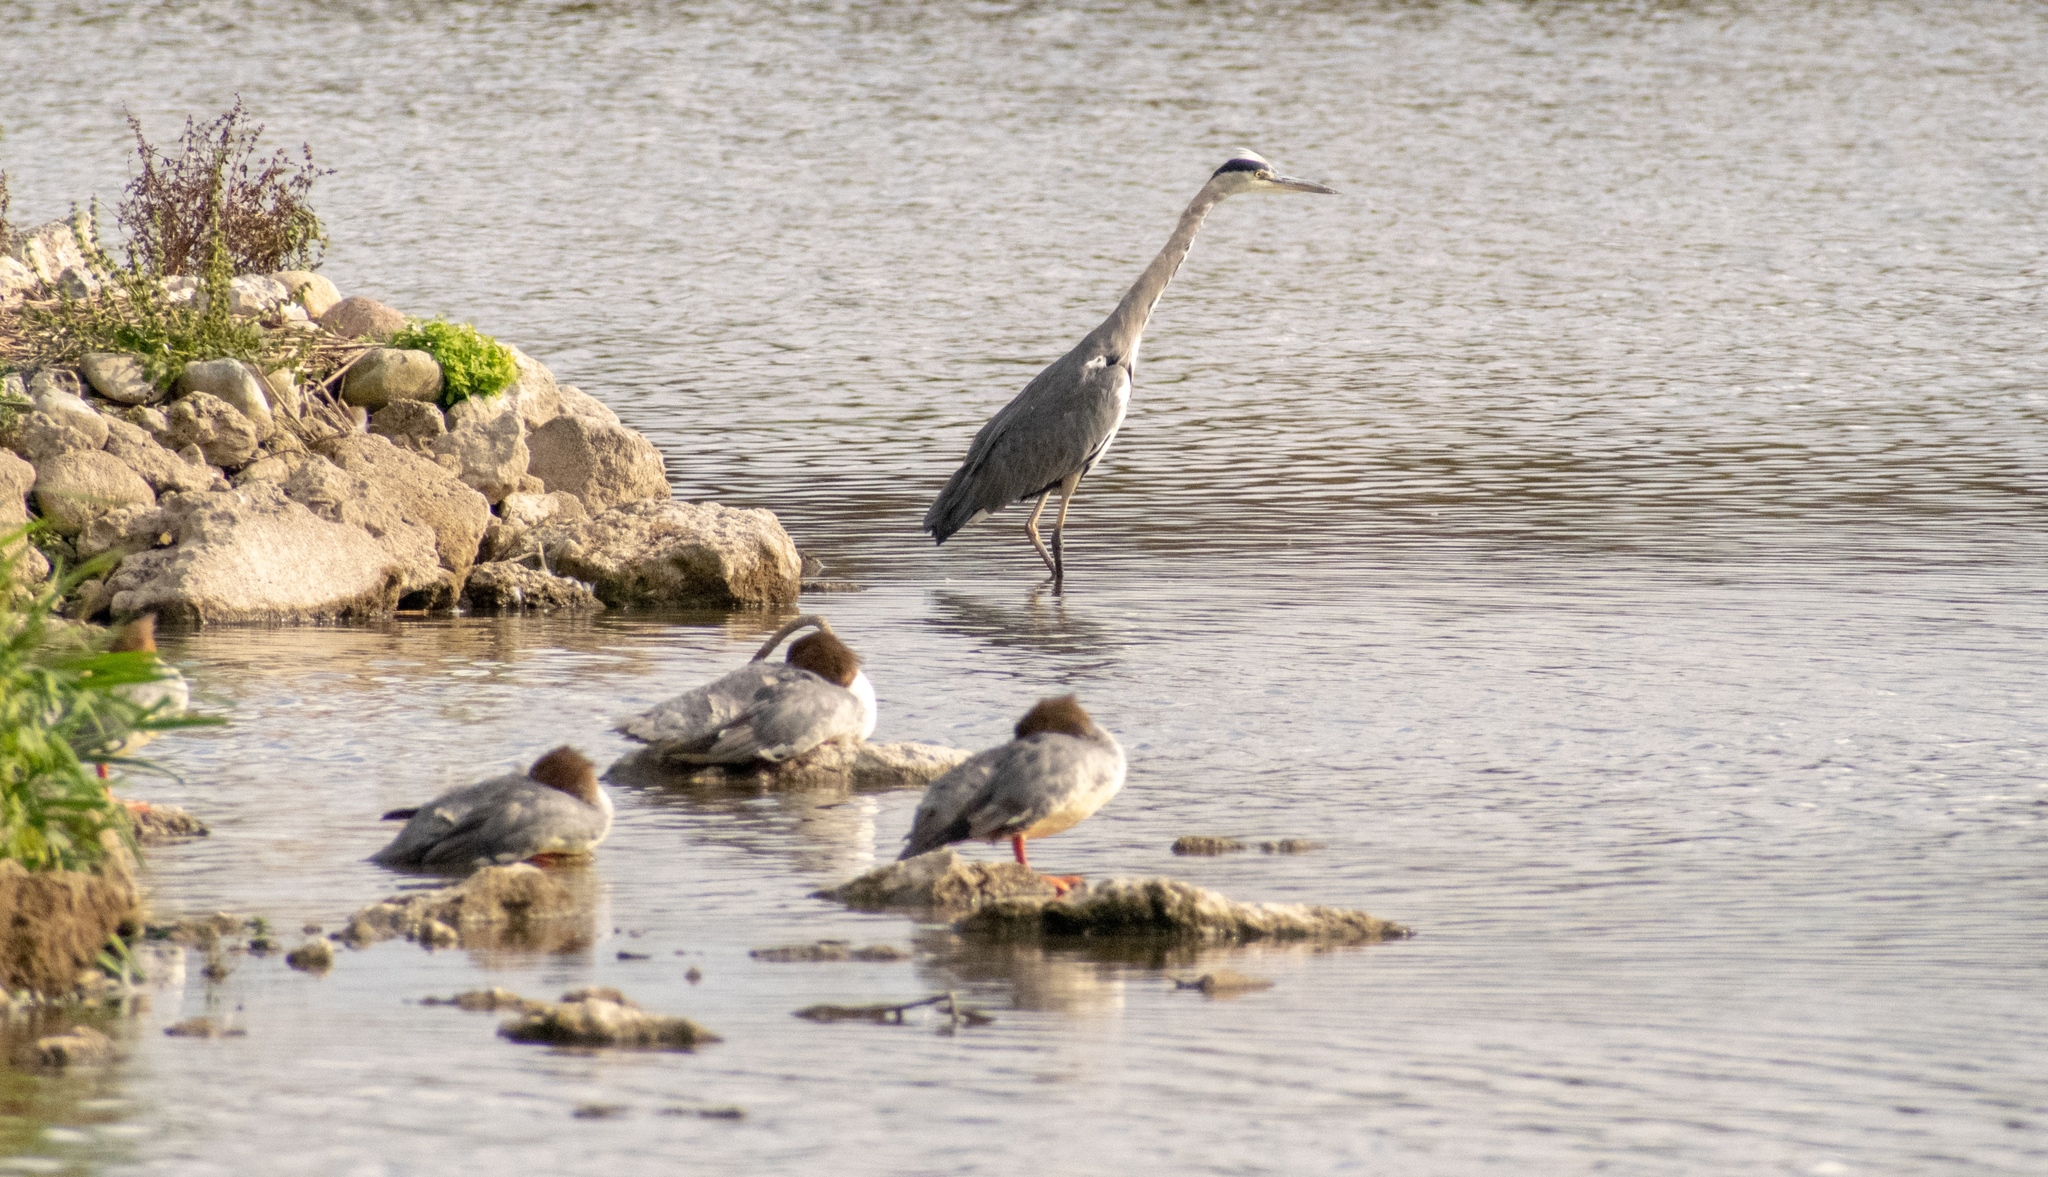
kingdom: Animalia
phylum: Chordata
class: Aves
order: Pelecaniformes
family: Ardeidae
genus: Ardea
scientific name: Ardea cinerea
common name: Grey heron
